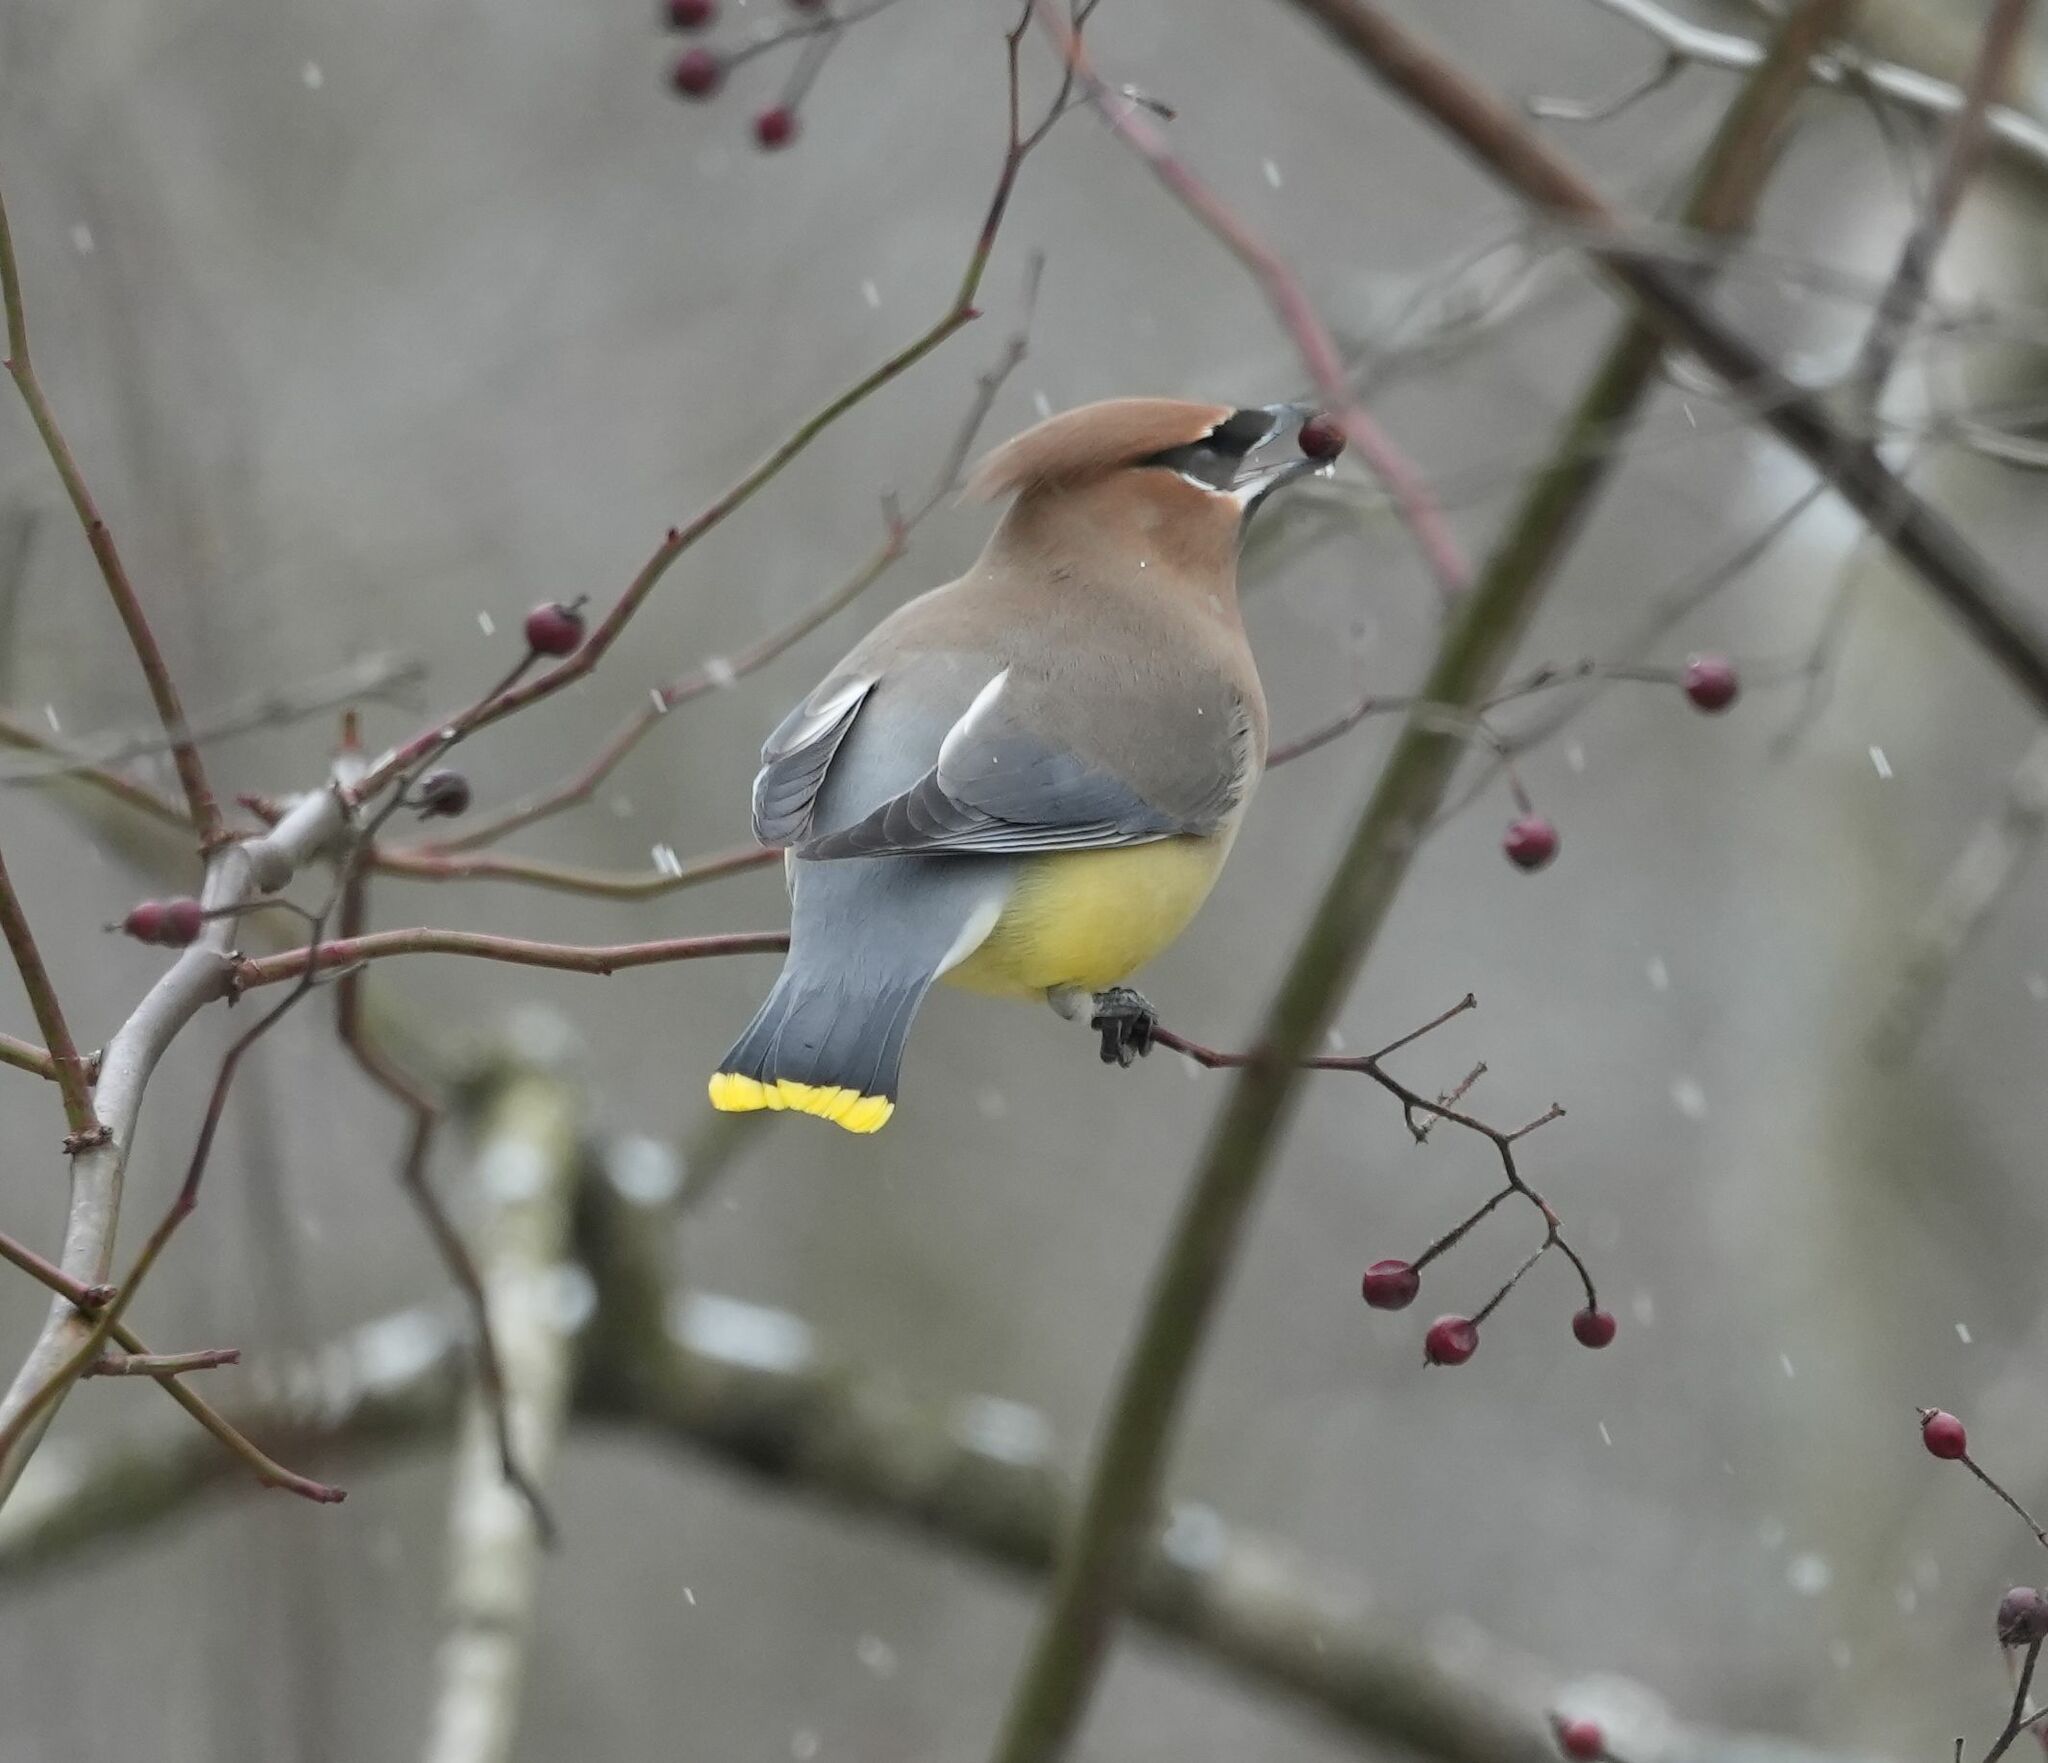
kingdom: Animalia
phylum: Chordata
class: Aves
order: Passeriformes
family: Bombycillidae
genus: Bombycilla
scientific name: Bombycilla cedrorum
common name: Cedar waxwing
